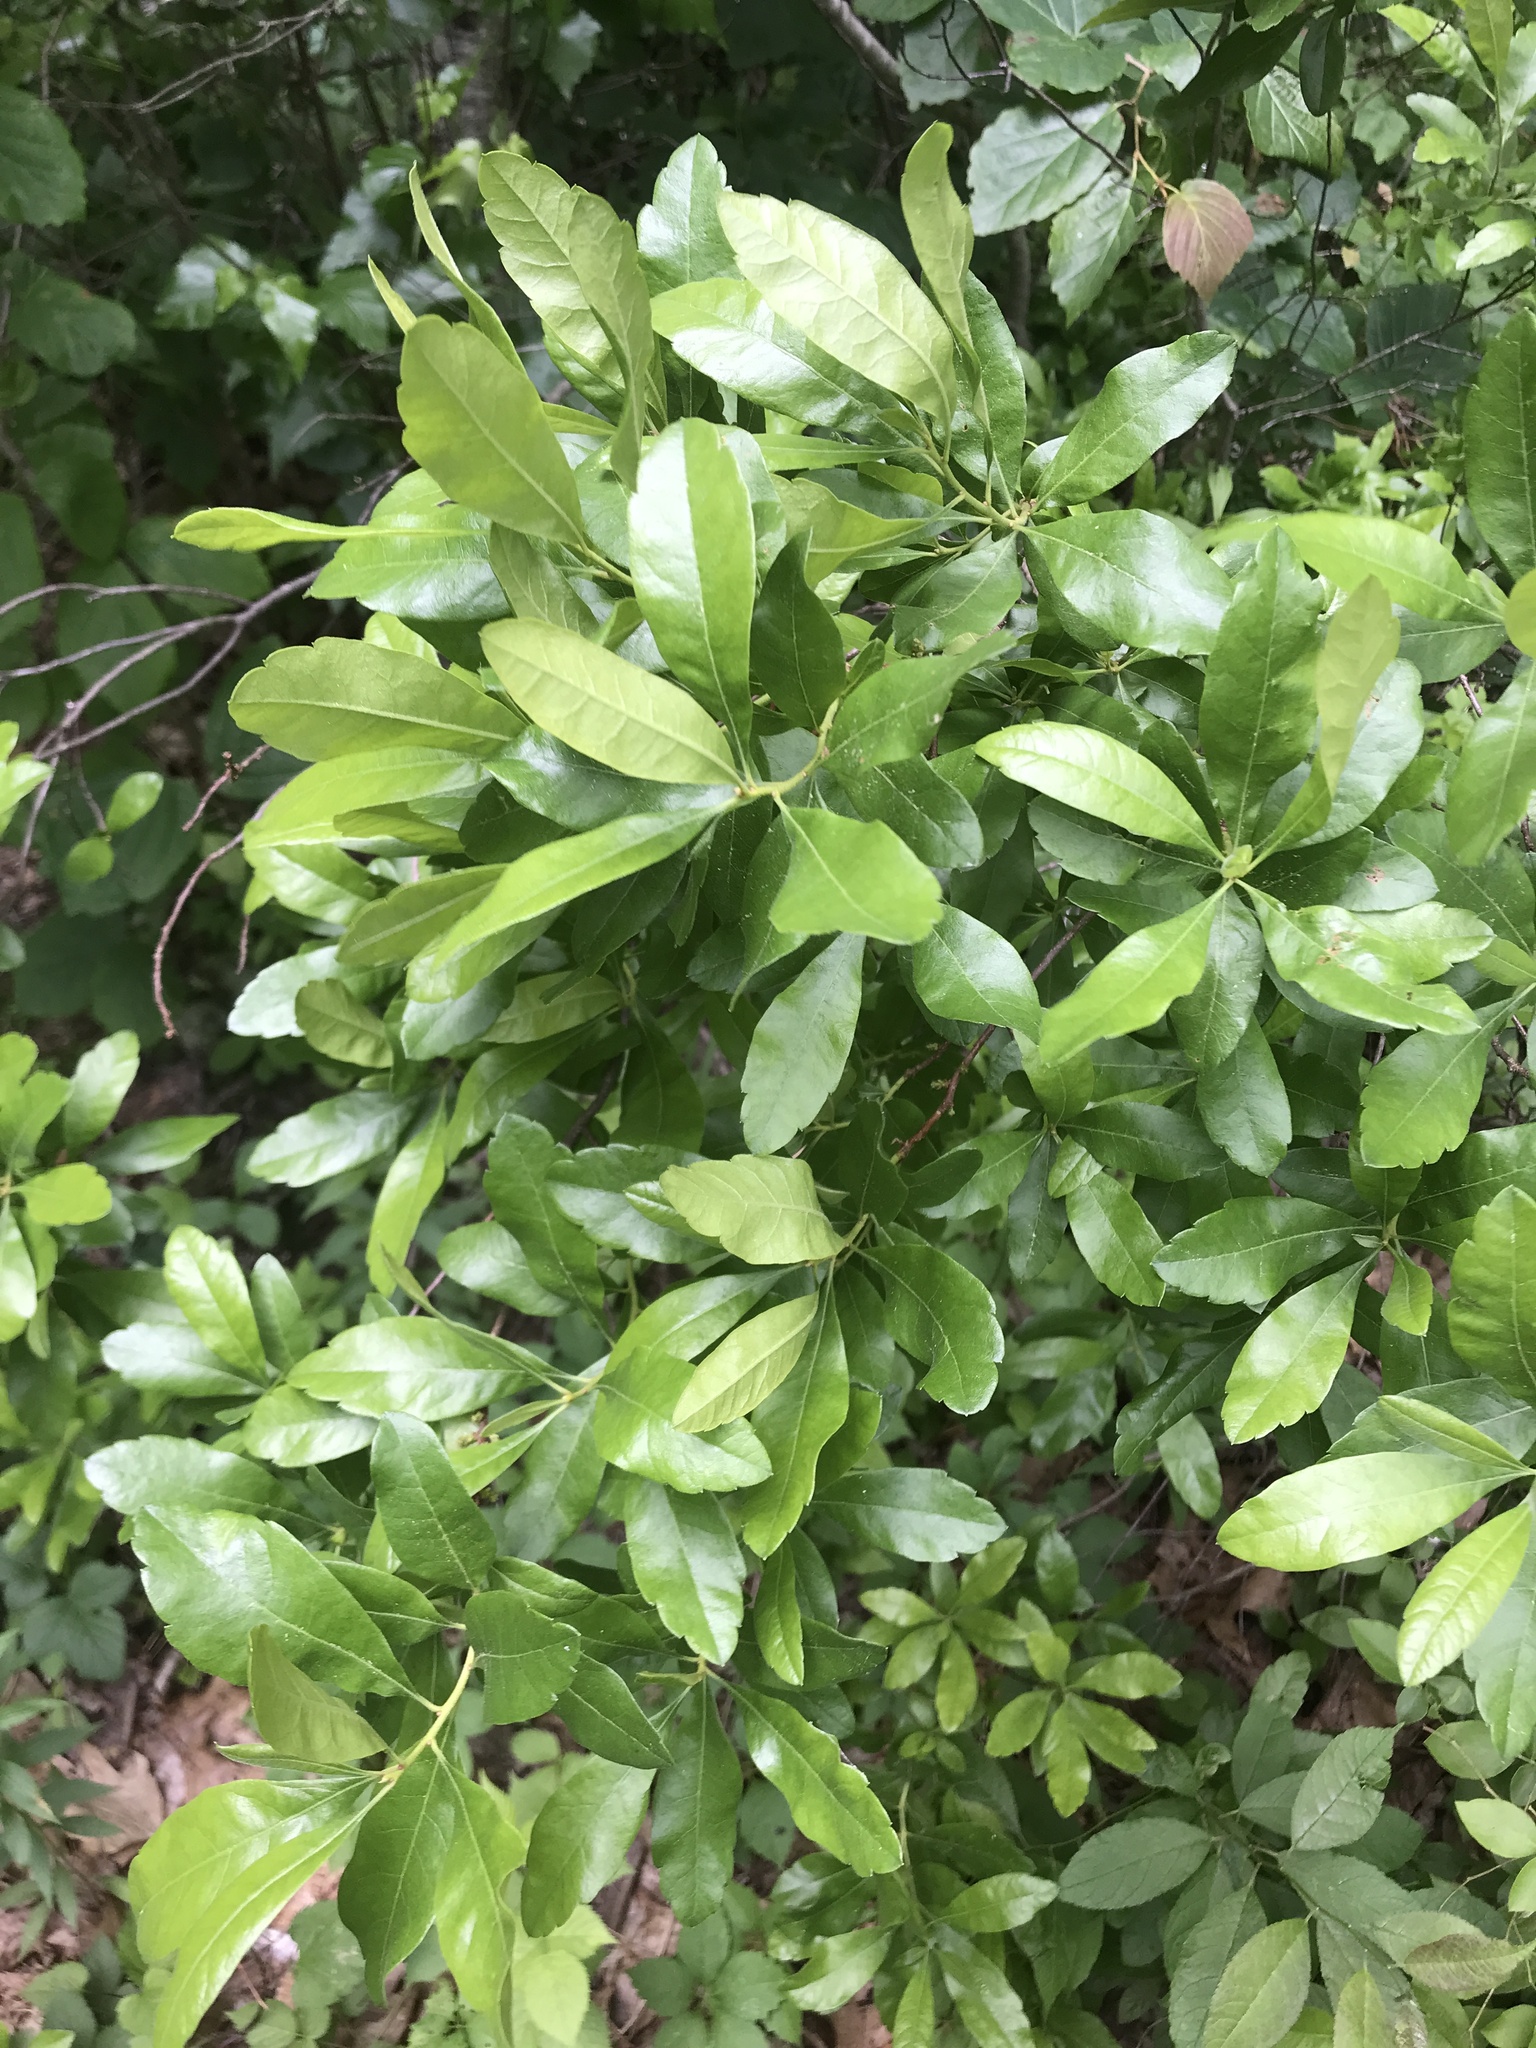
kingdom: Plantae
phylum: Tracheophyta
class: Magnoliopsida
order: Fagales
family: Myricaceae
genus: Morella
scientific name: Morella pensylvanica
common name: Northern bayberry
